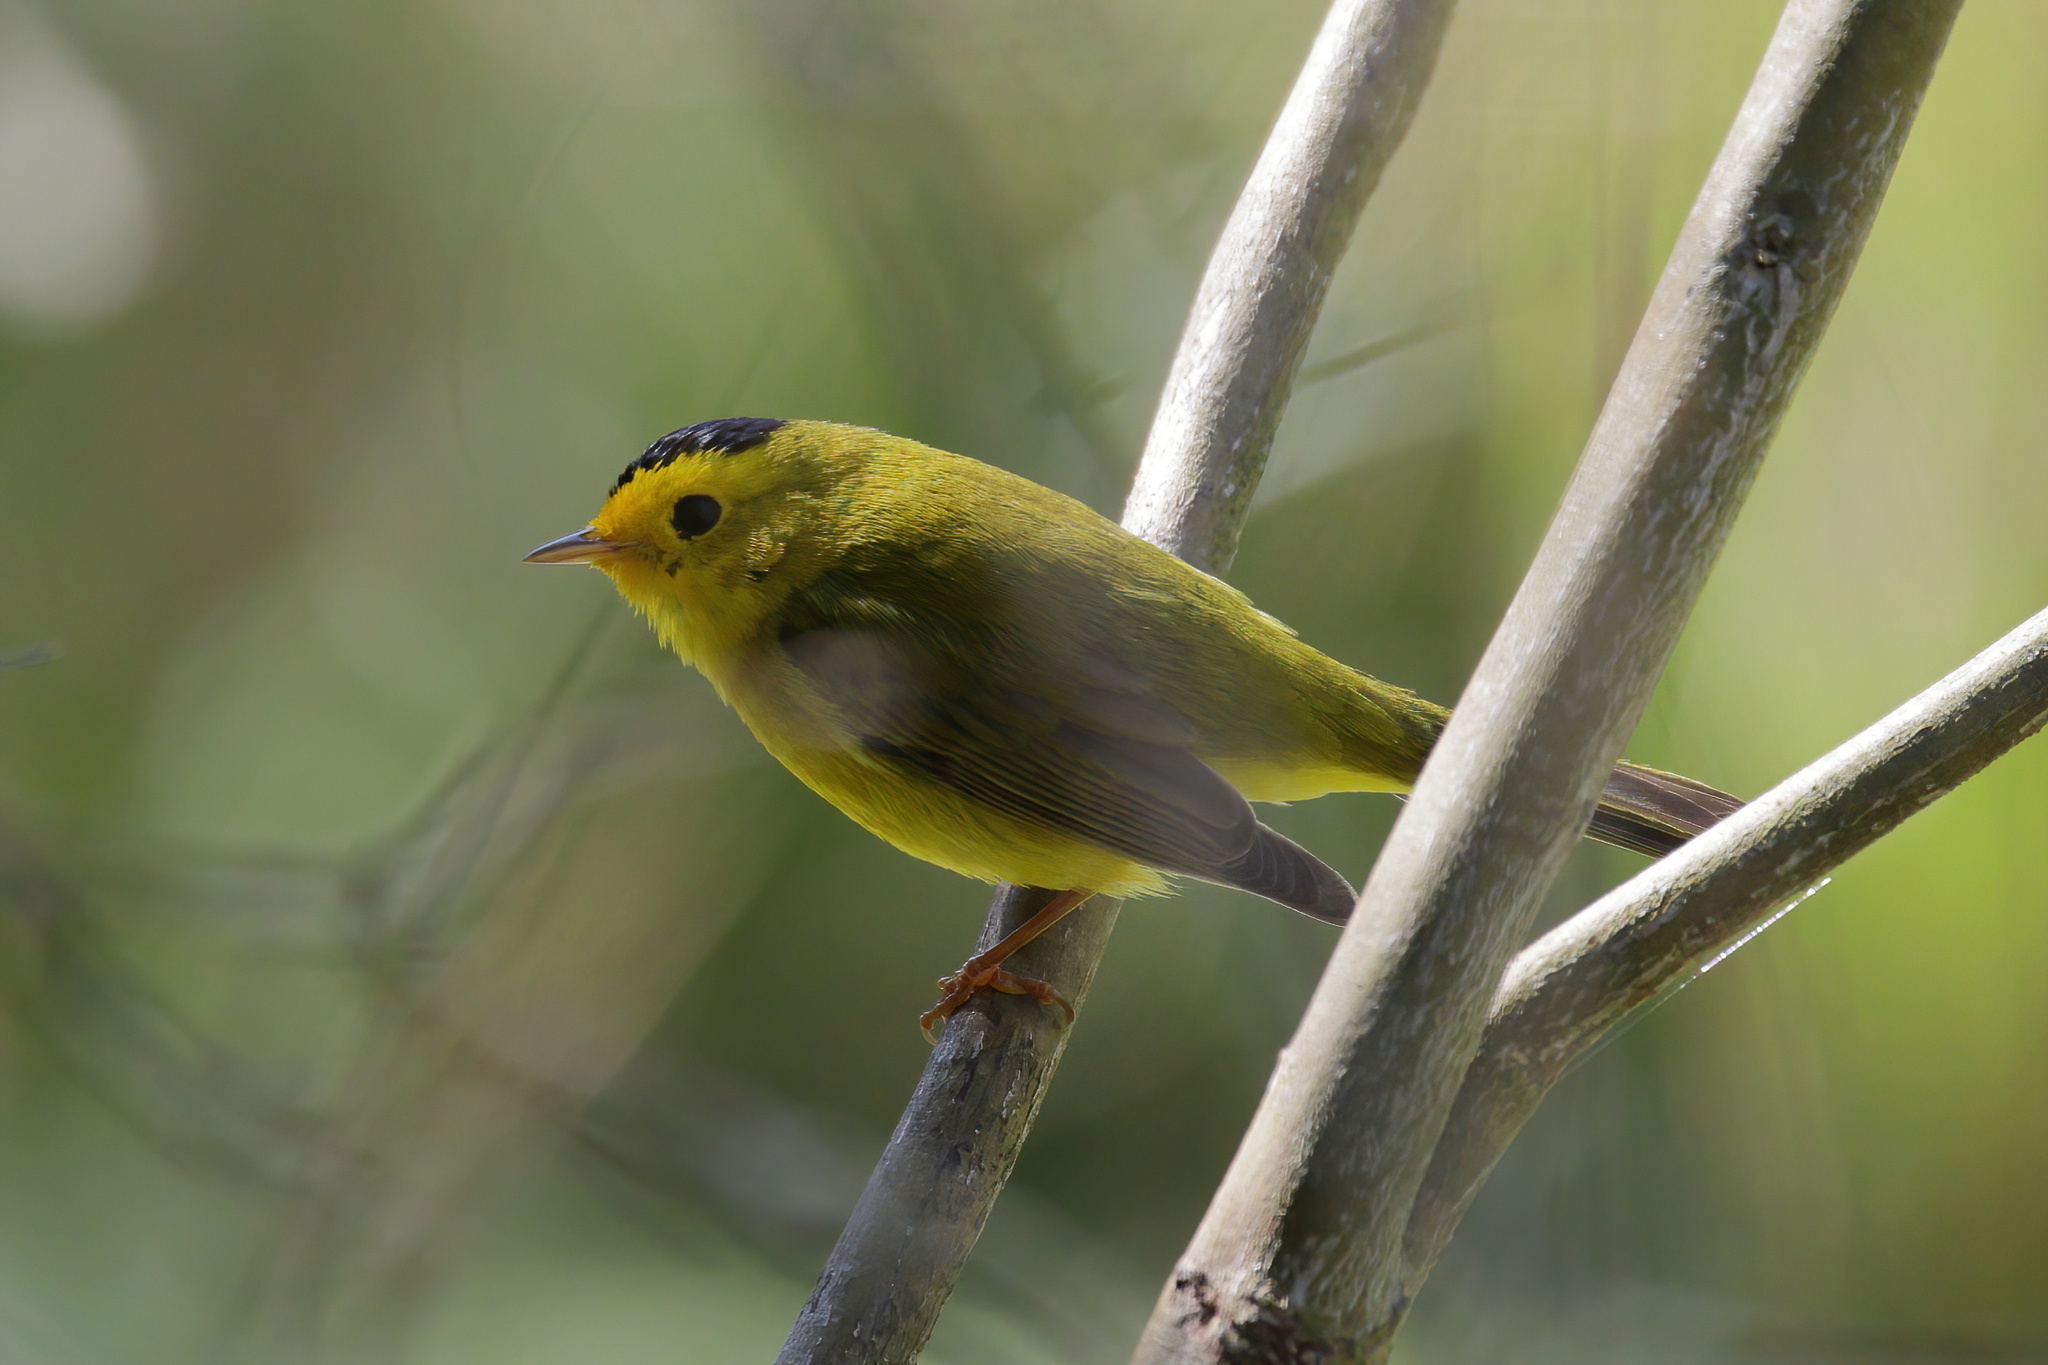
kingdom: Animalia
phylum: Chordata
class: Aves
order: Passeriformes
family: Parulidae
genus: Cardellina
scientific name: Cardellina pusilla
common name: Wilson's warbler
